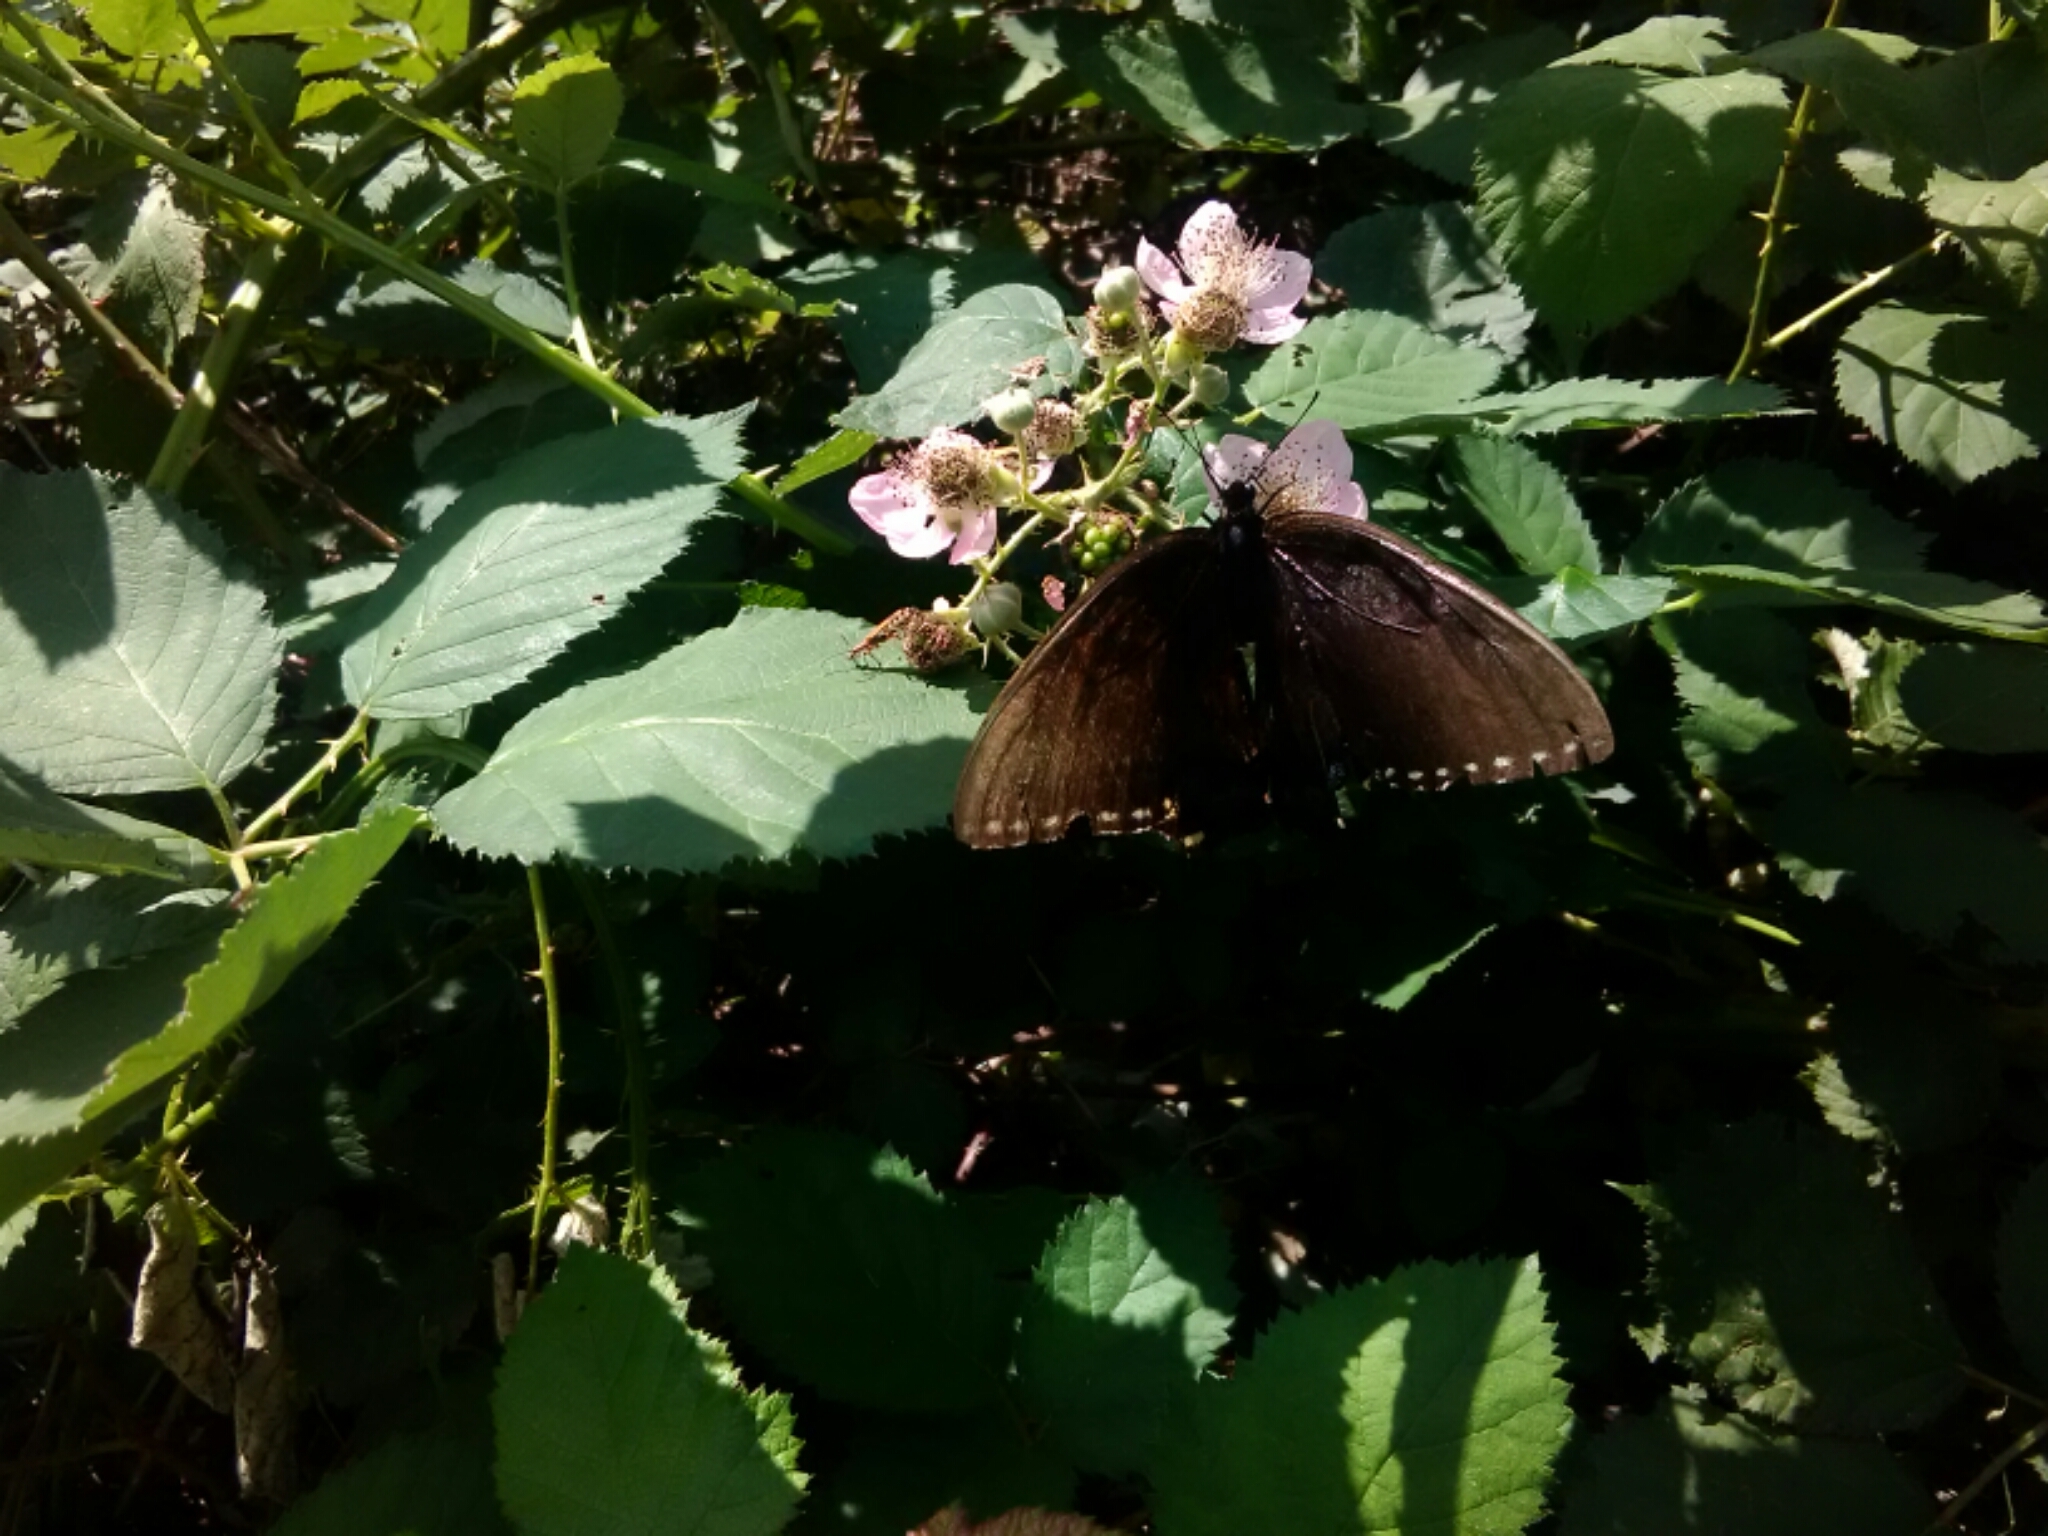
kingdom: Animalia
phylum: Arthropoda
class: Insecta
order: Lepidoptera
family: Papilionidae
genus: Papilio
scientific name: Papilio glaucus
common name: Tiger swallowtail
